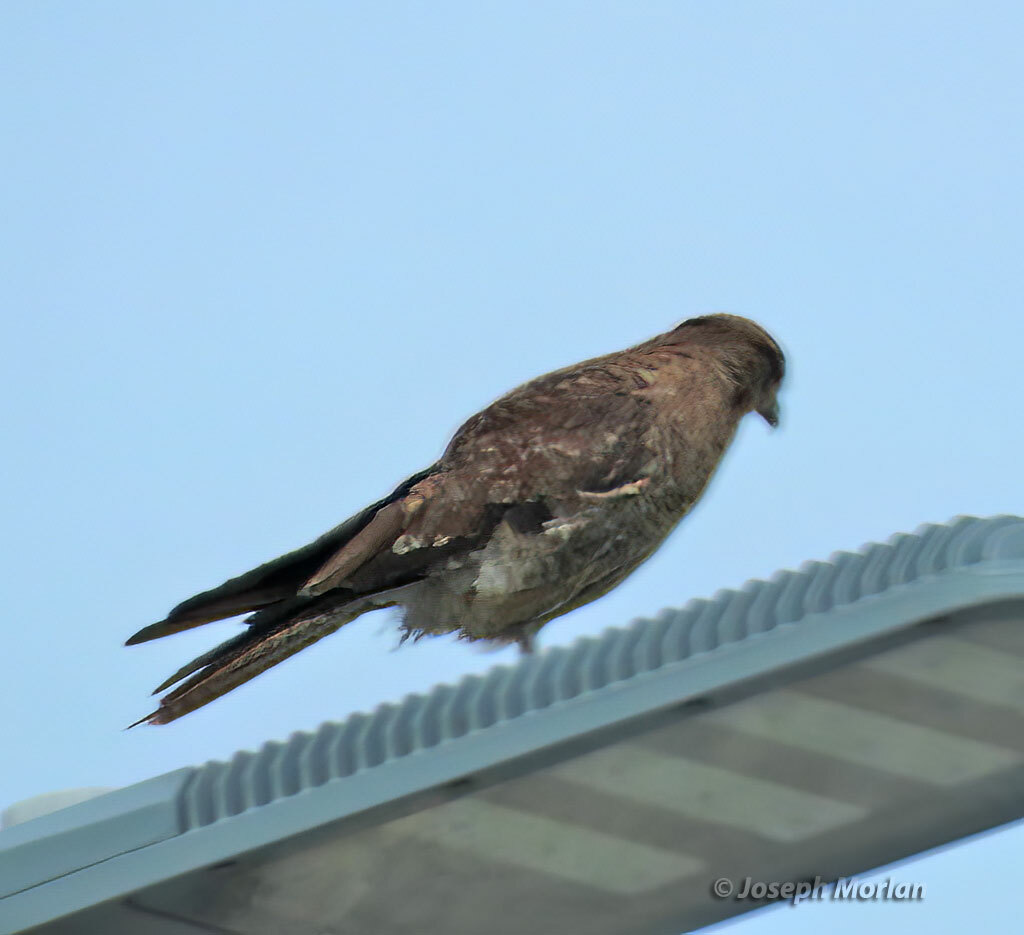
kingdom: Animalia
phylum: Chordata
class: Aves
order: Falconiformes
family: Falconidae
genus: Daptrius
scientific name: Daptrius
